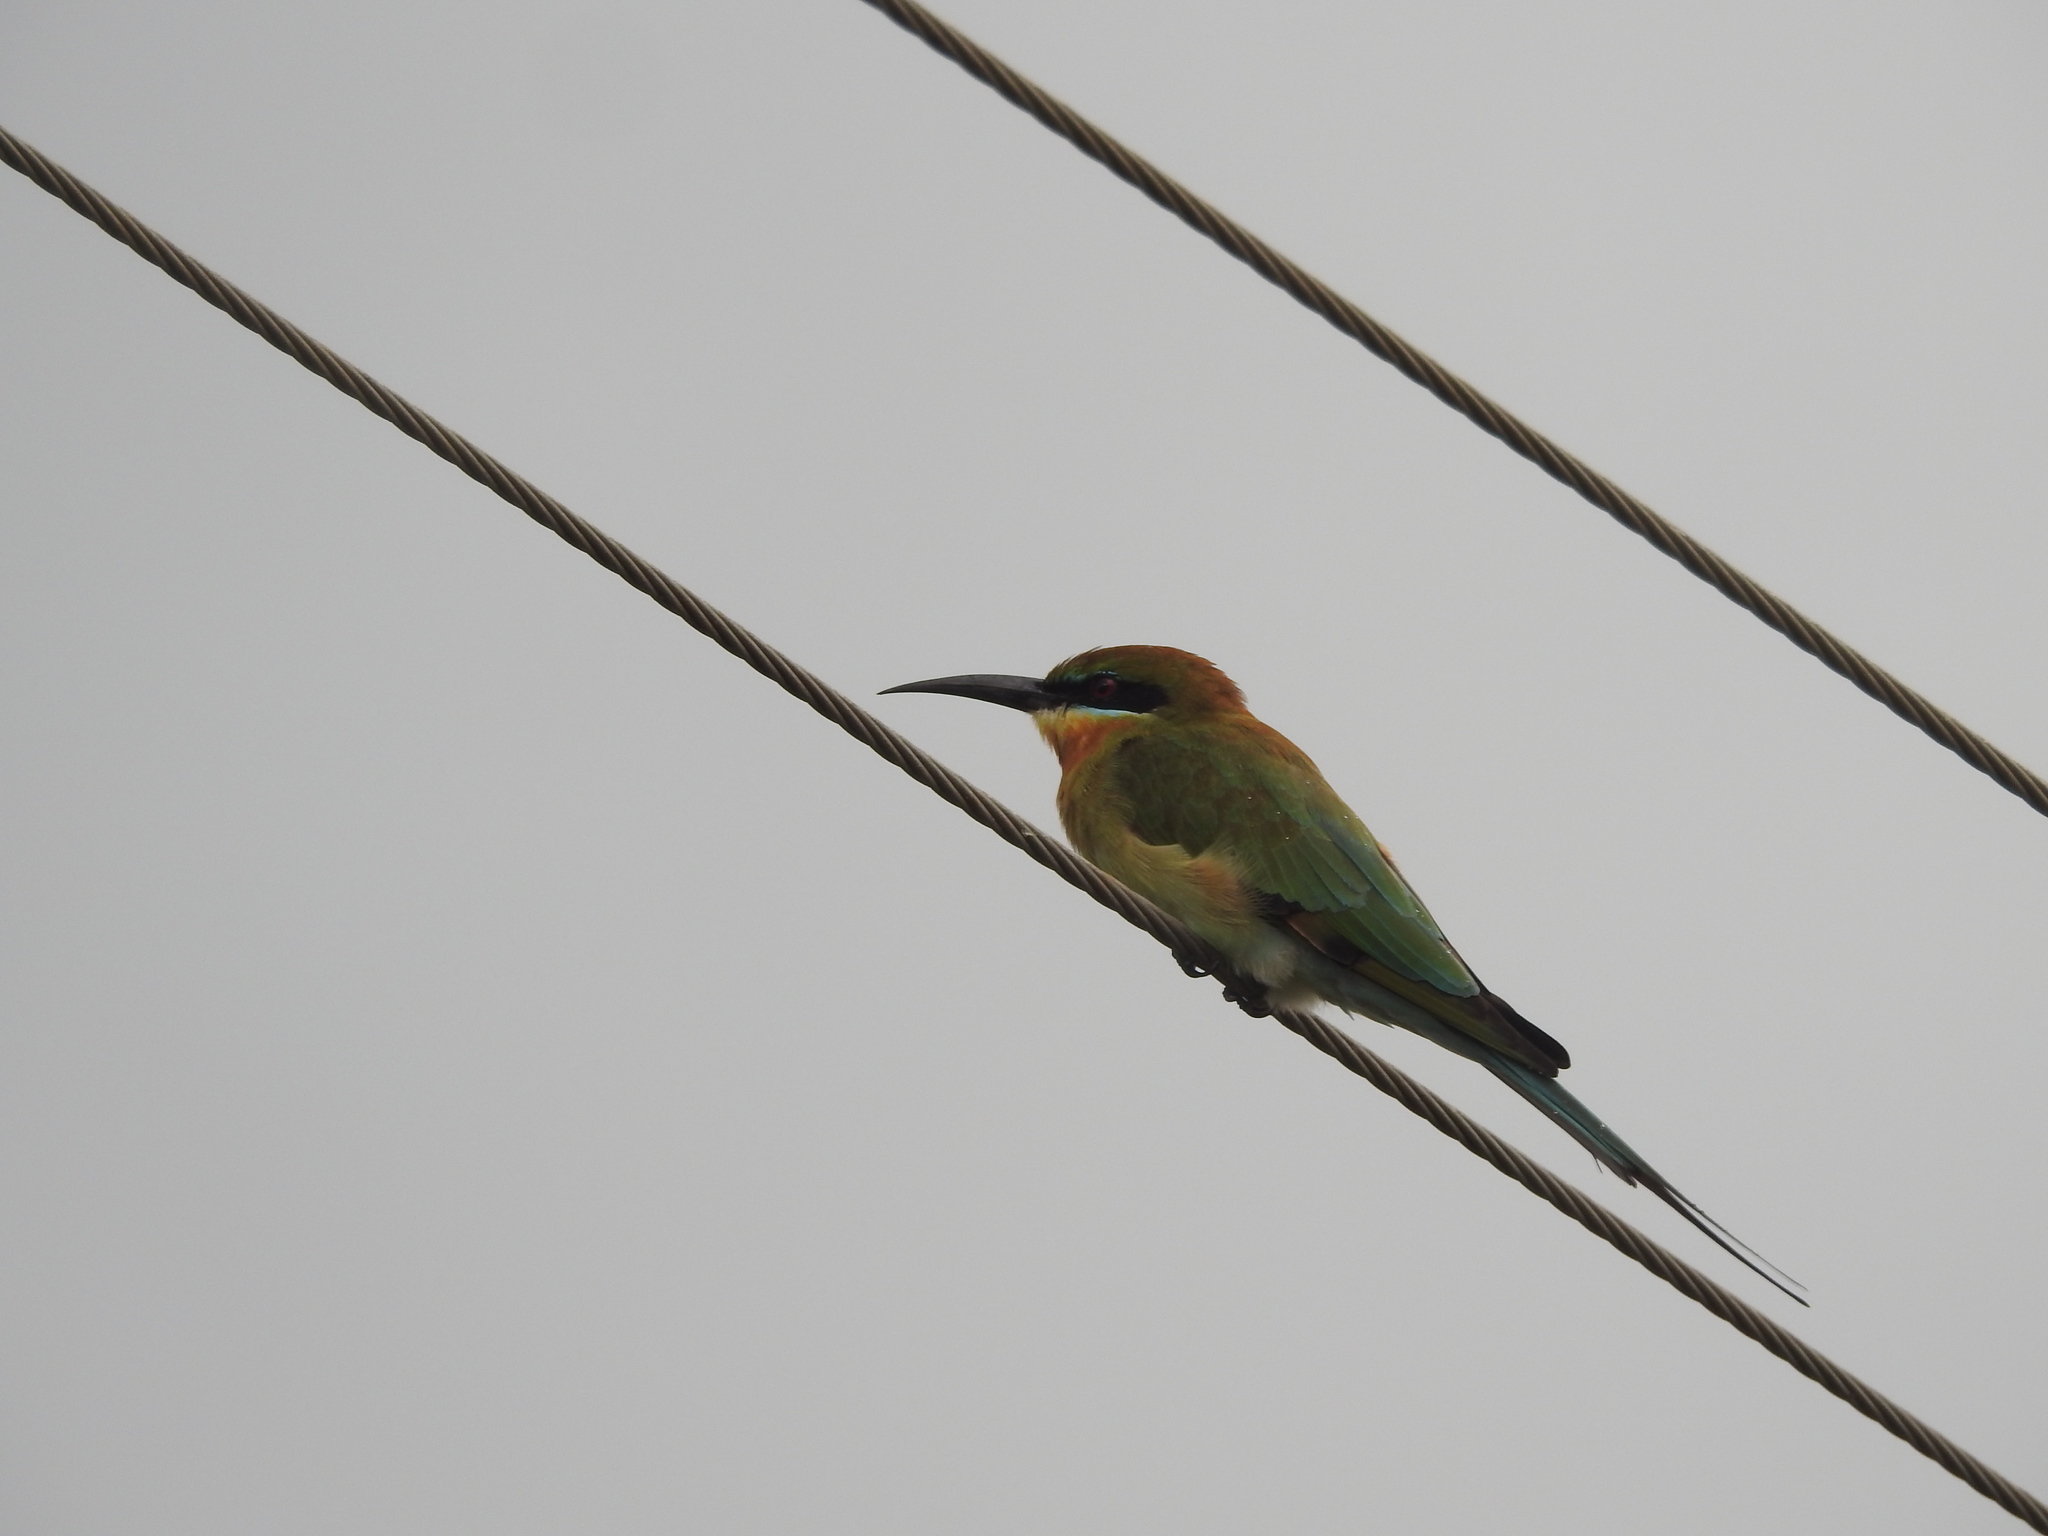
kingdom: Animalia
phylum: Chordata
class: Aves
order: Coraciiformes
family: Meropidae
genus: Merops
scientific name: Merops philippinus
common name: Blue-tailed bee-eater
